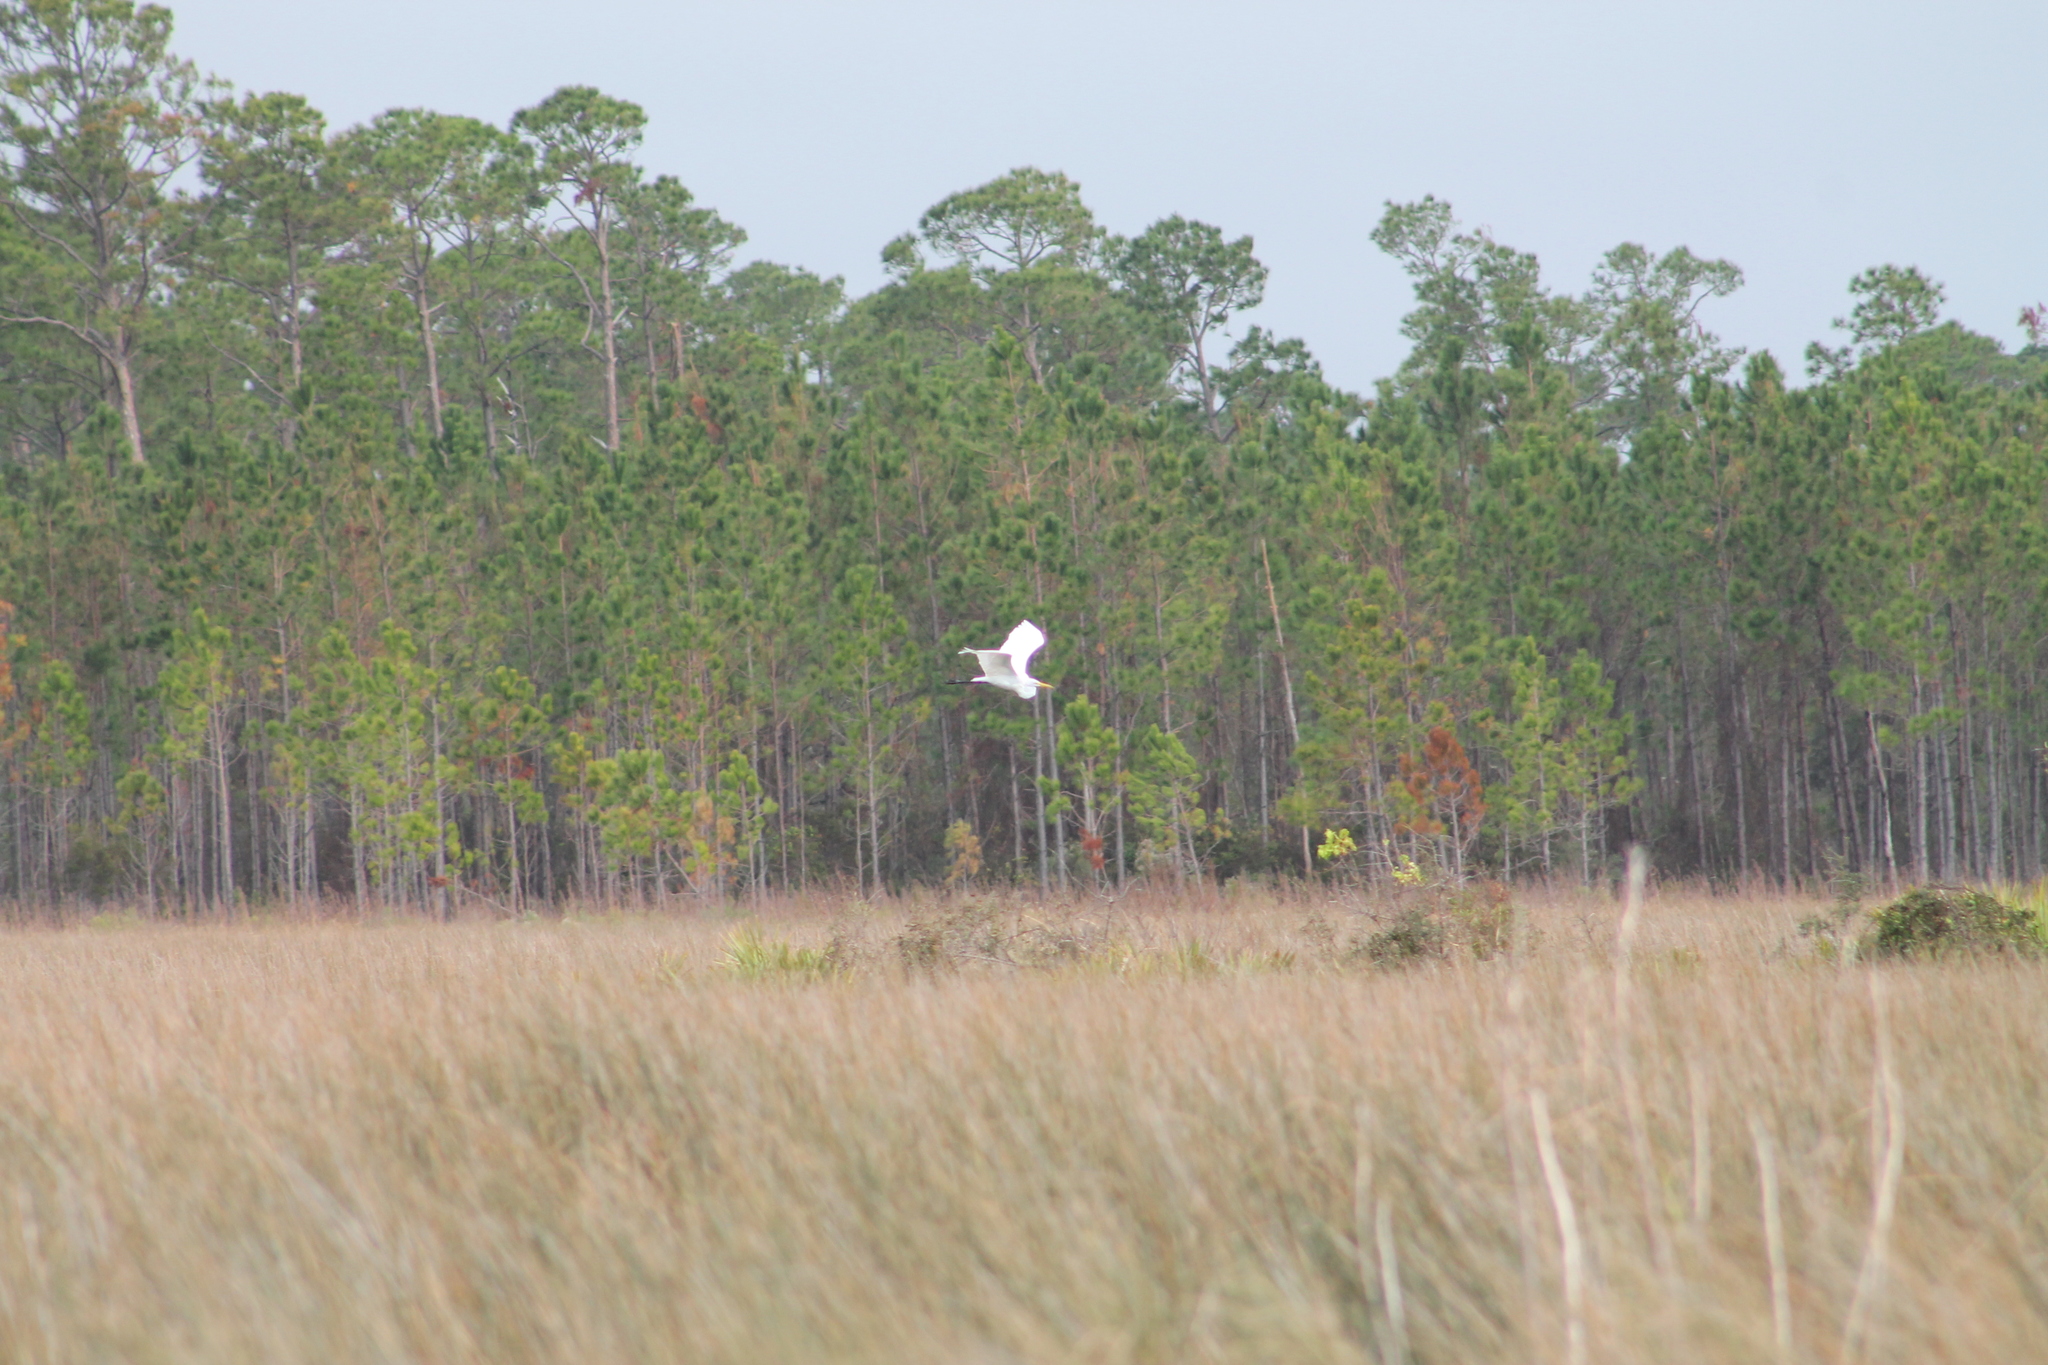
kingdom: Animalia
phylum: Chordata
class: Aves
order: Pelecaniformes
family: Ardeidae
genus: Ardea
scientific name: Ardea alba
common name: Great egret
